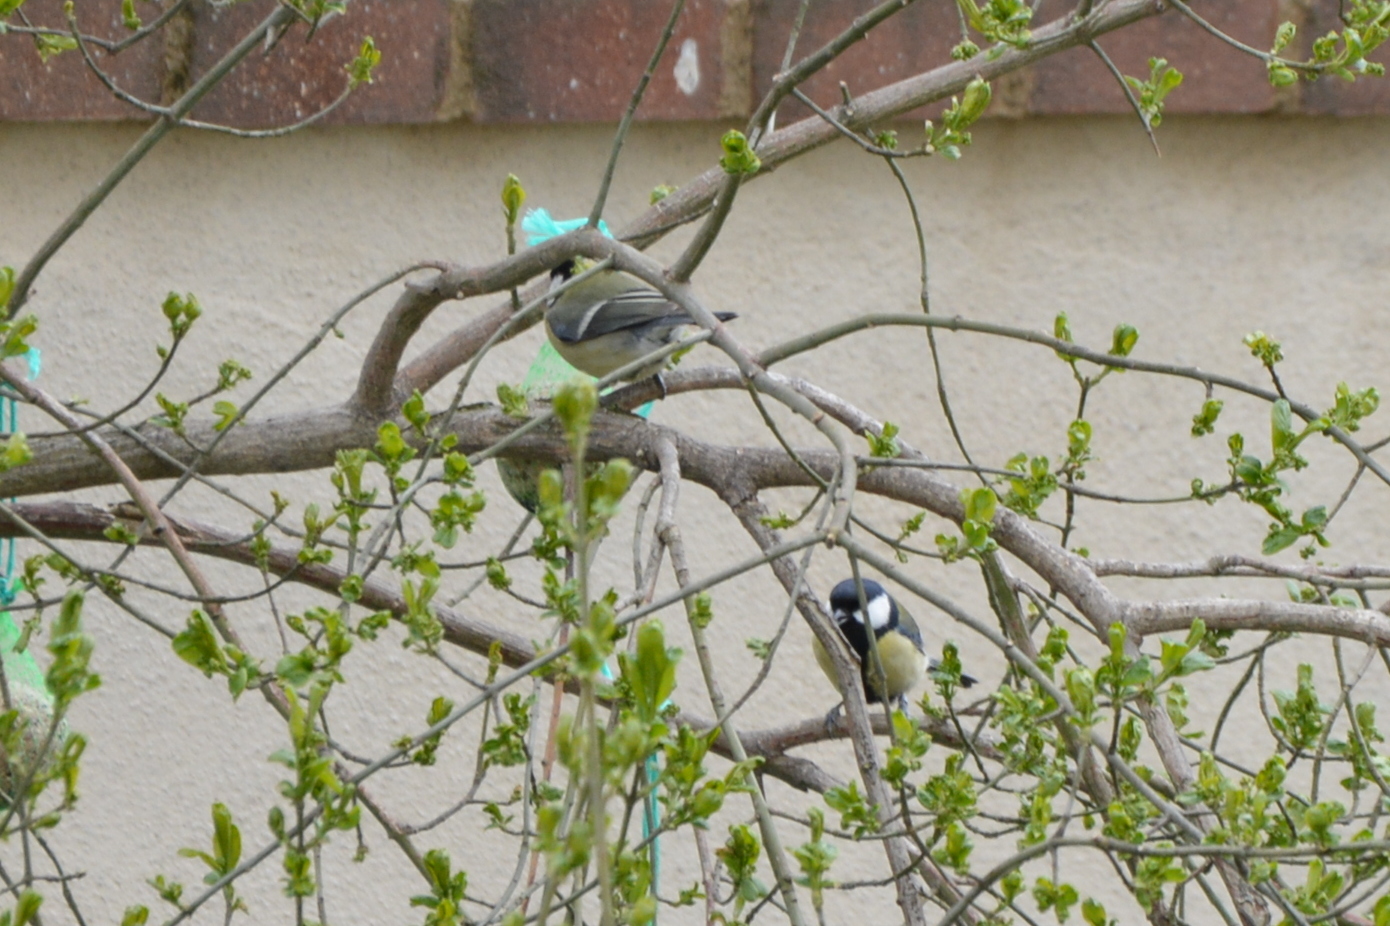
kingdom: Animalia
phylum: Chordata
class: Aves
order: Passeriformes
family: Paridae
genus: Parus
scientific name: Parus major
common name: Great tit
